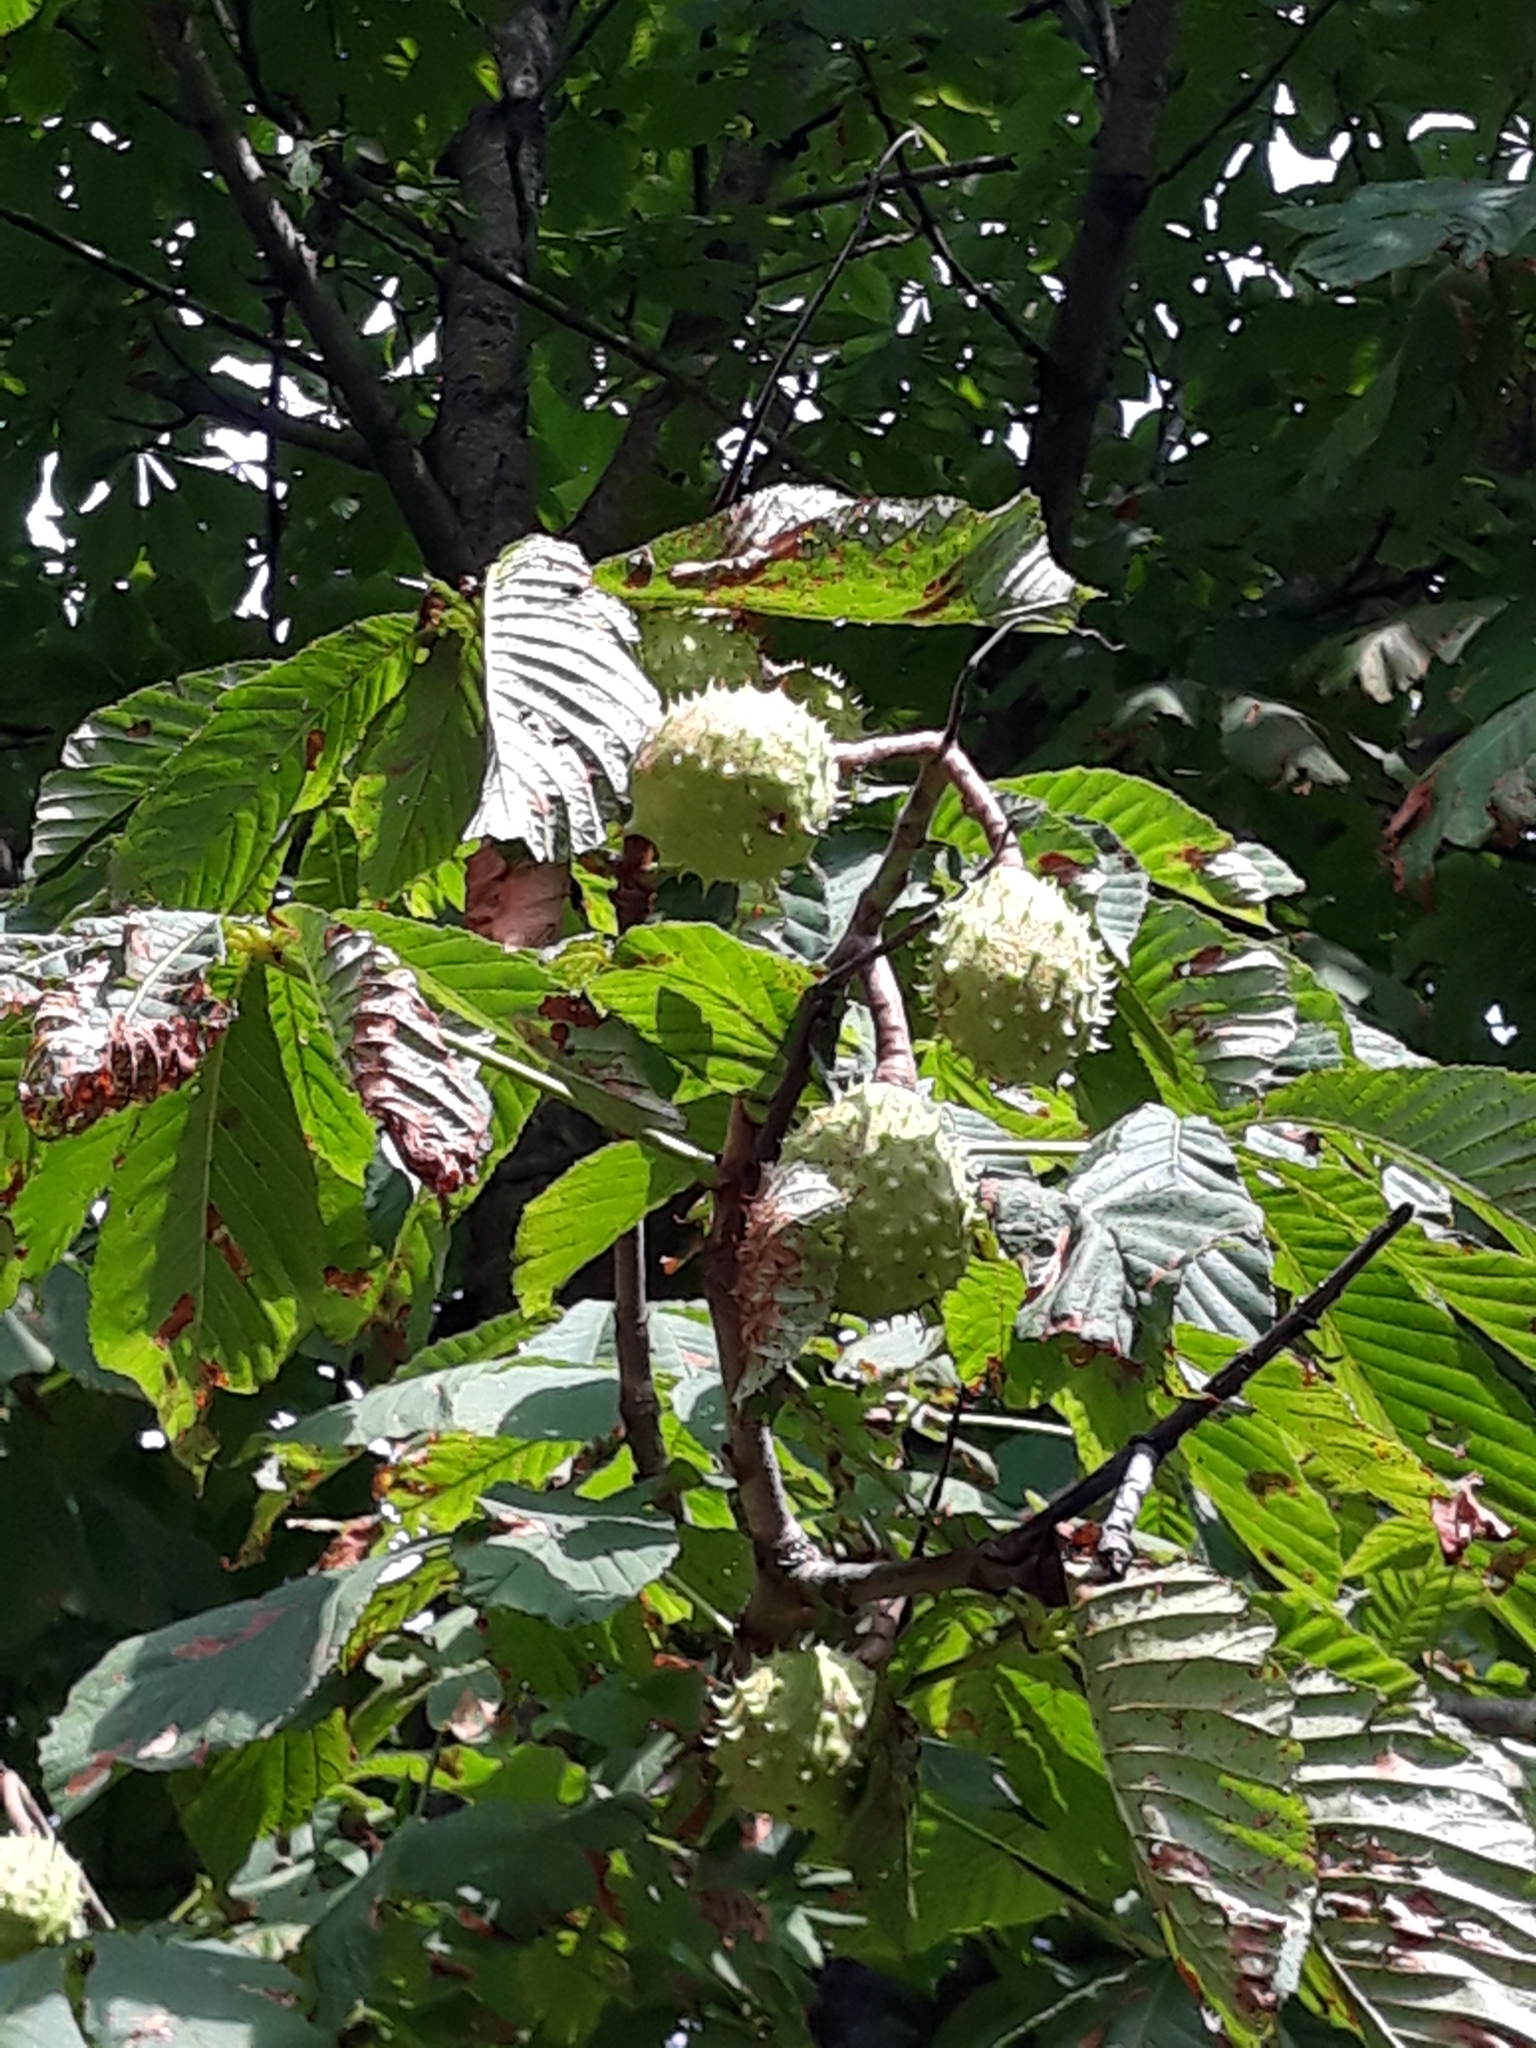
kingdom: Plantae
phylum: Tracheophyta
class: Magnoliopsida
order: Sapindales
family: Sapindaceae
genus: Aesculus
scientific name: Aesculus hippocastanum
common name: Horse-chestnut
